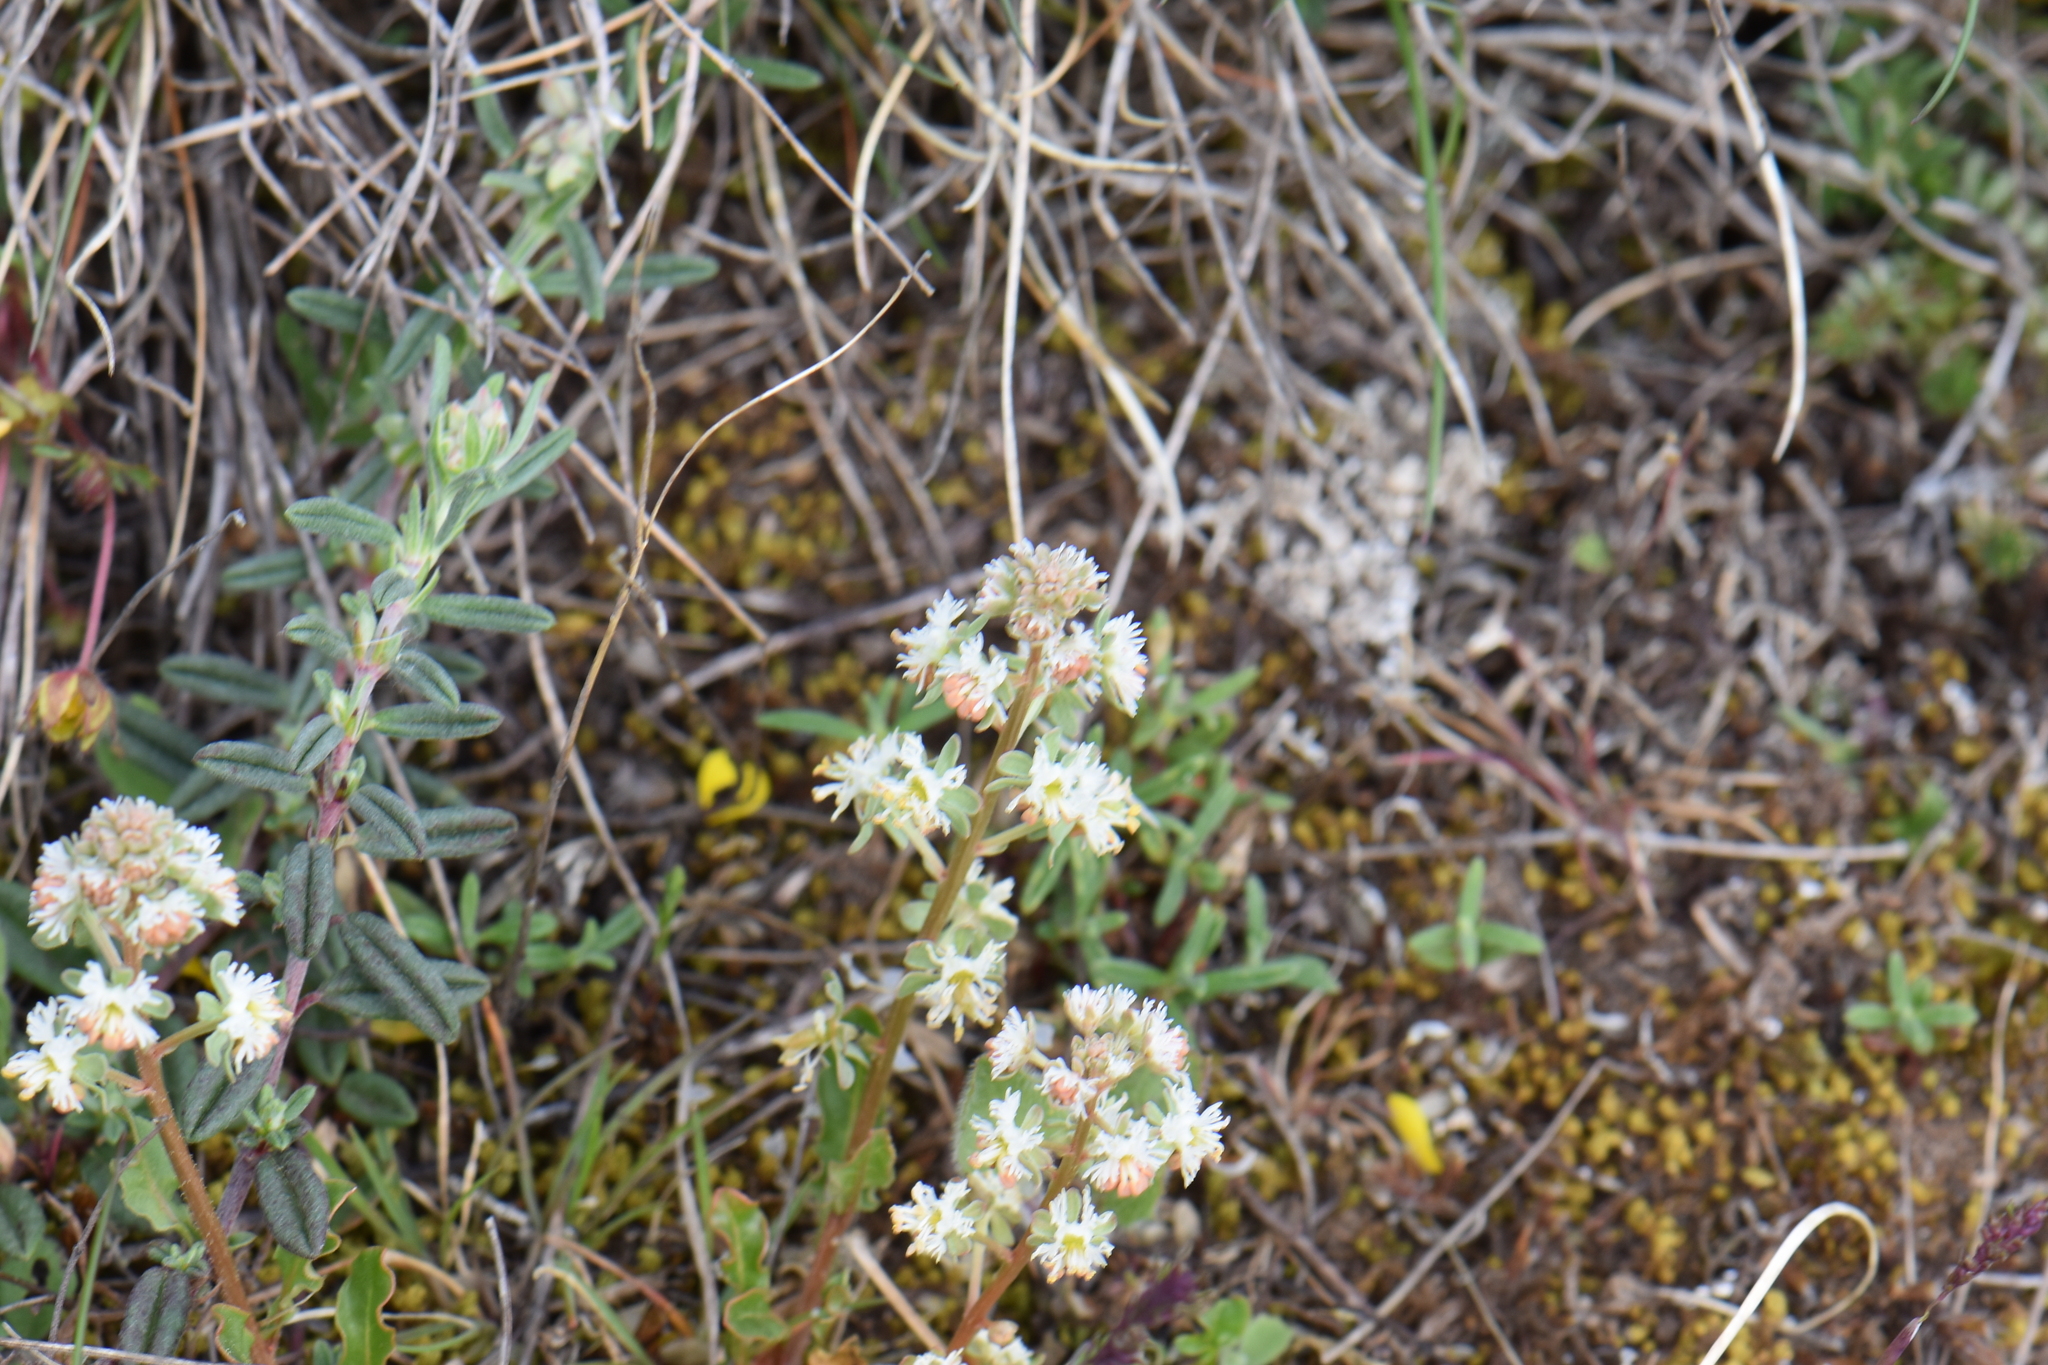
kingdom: Plantae
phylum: Tracheophyta
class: Magnoliopsida
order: Brassicales
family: Resedaceae
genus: Reseda
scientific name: Reseda phyteuma
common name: Corn mignonette
